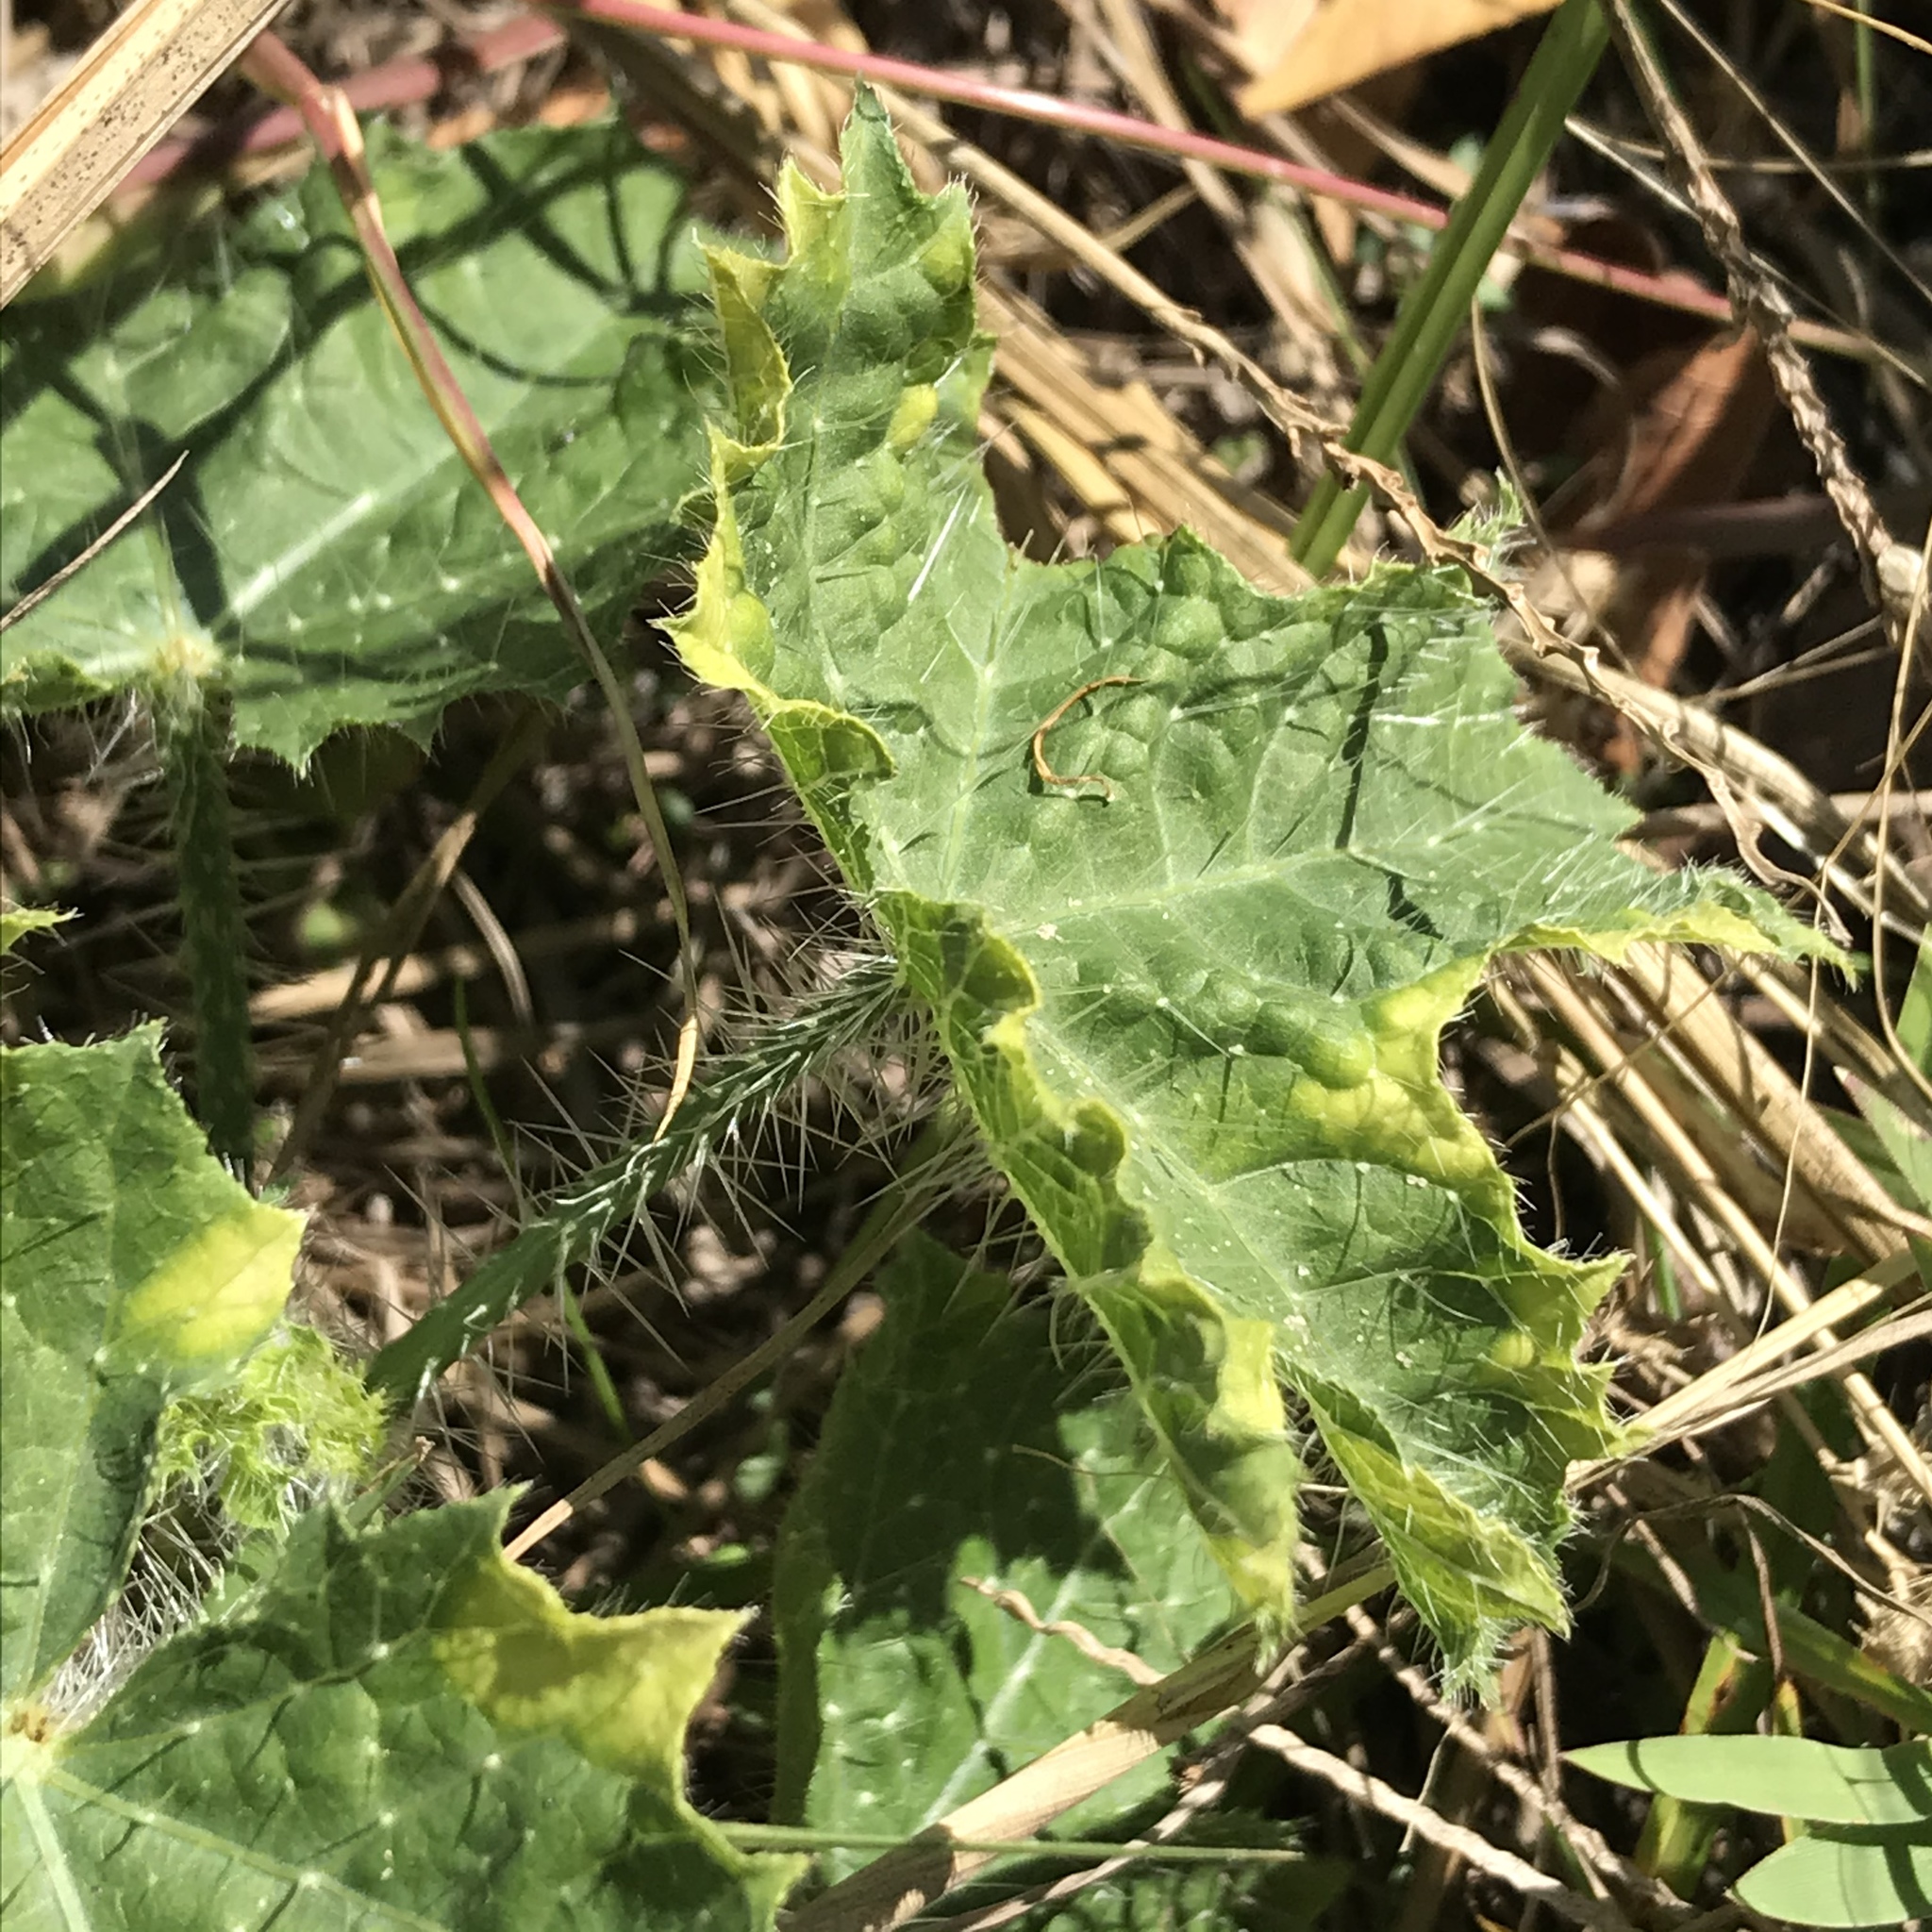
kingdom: Plantae
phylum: Tracheophyta
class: Magnoliopsida
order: Malpighiales
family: Euphorbiaceae
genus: Cnidoscolus
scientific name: Cnidoscolus texanus
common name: Texas bull-nettle
